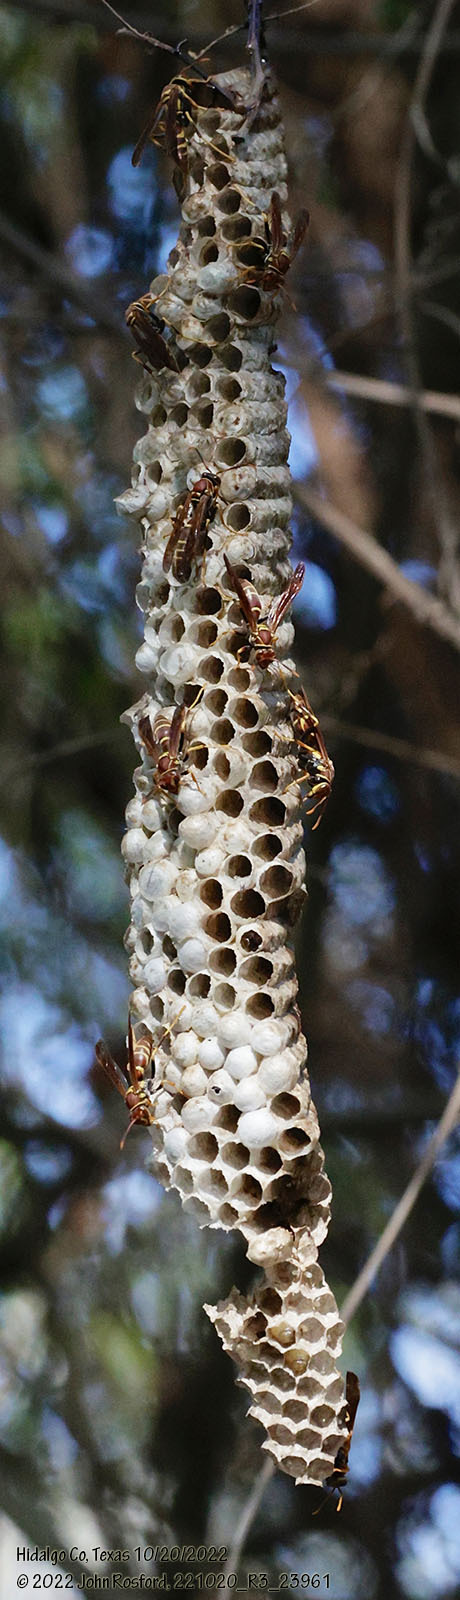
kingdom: Animalia
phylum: Arthropoda
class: Insecta
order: Hymenoptera
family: Eumenidae
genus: Polistes
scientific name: Polistes instabilis
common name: Unstable paper wasp
